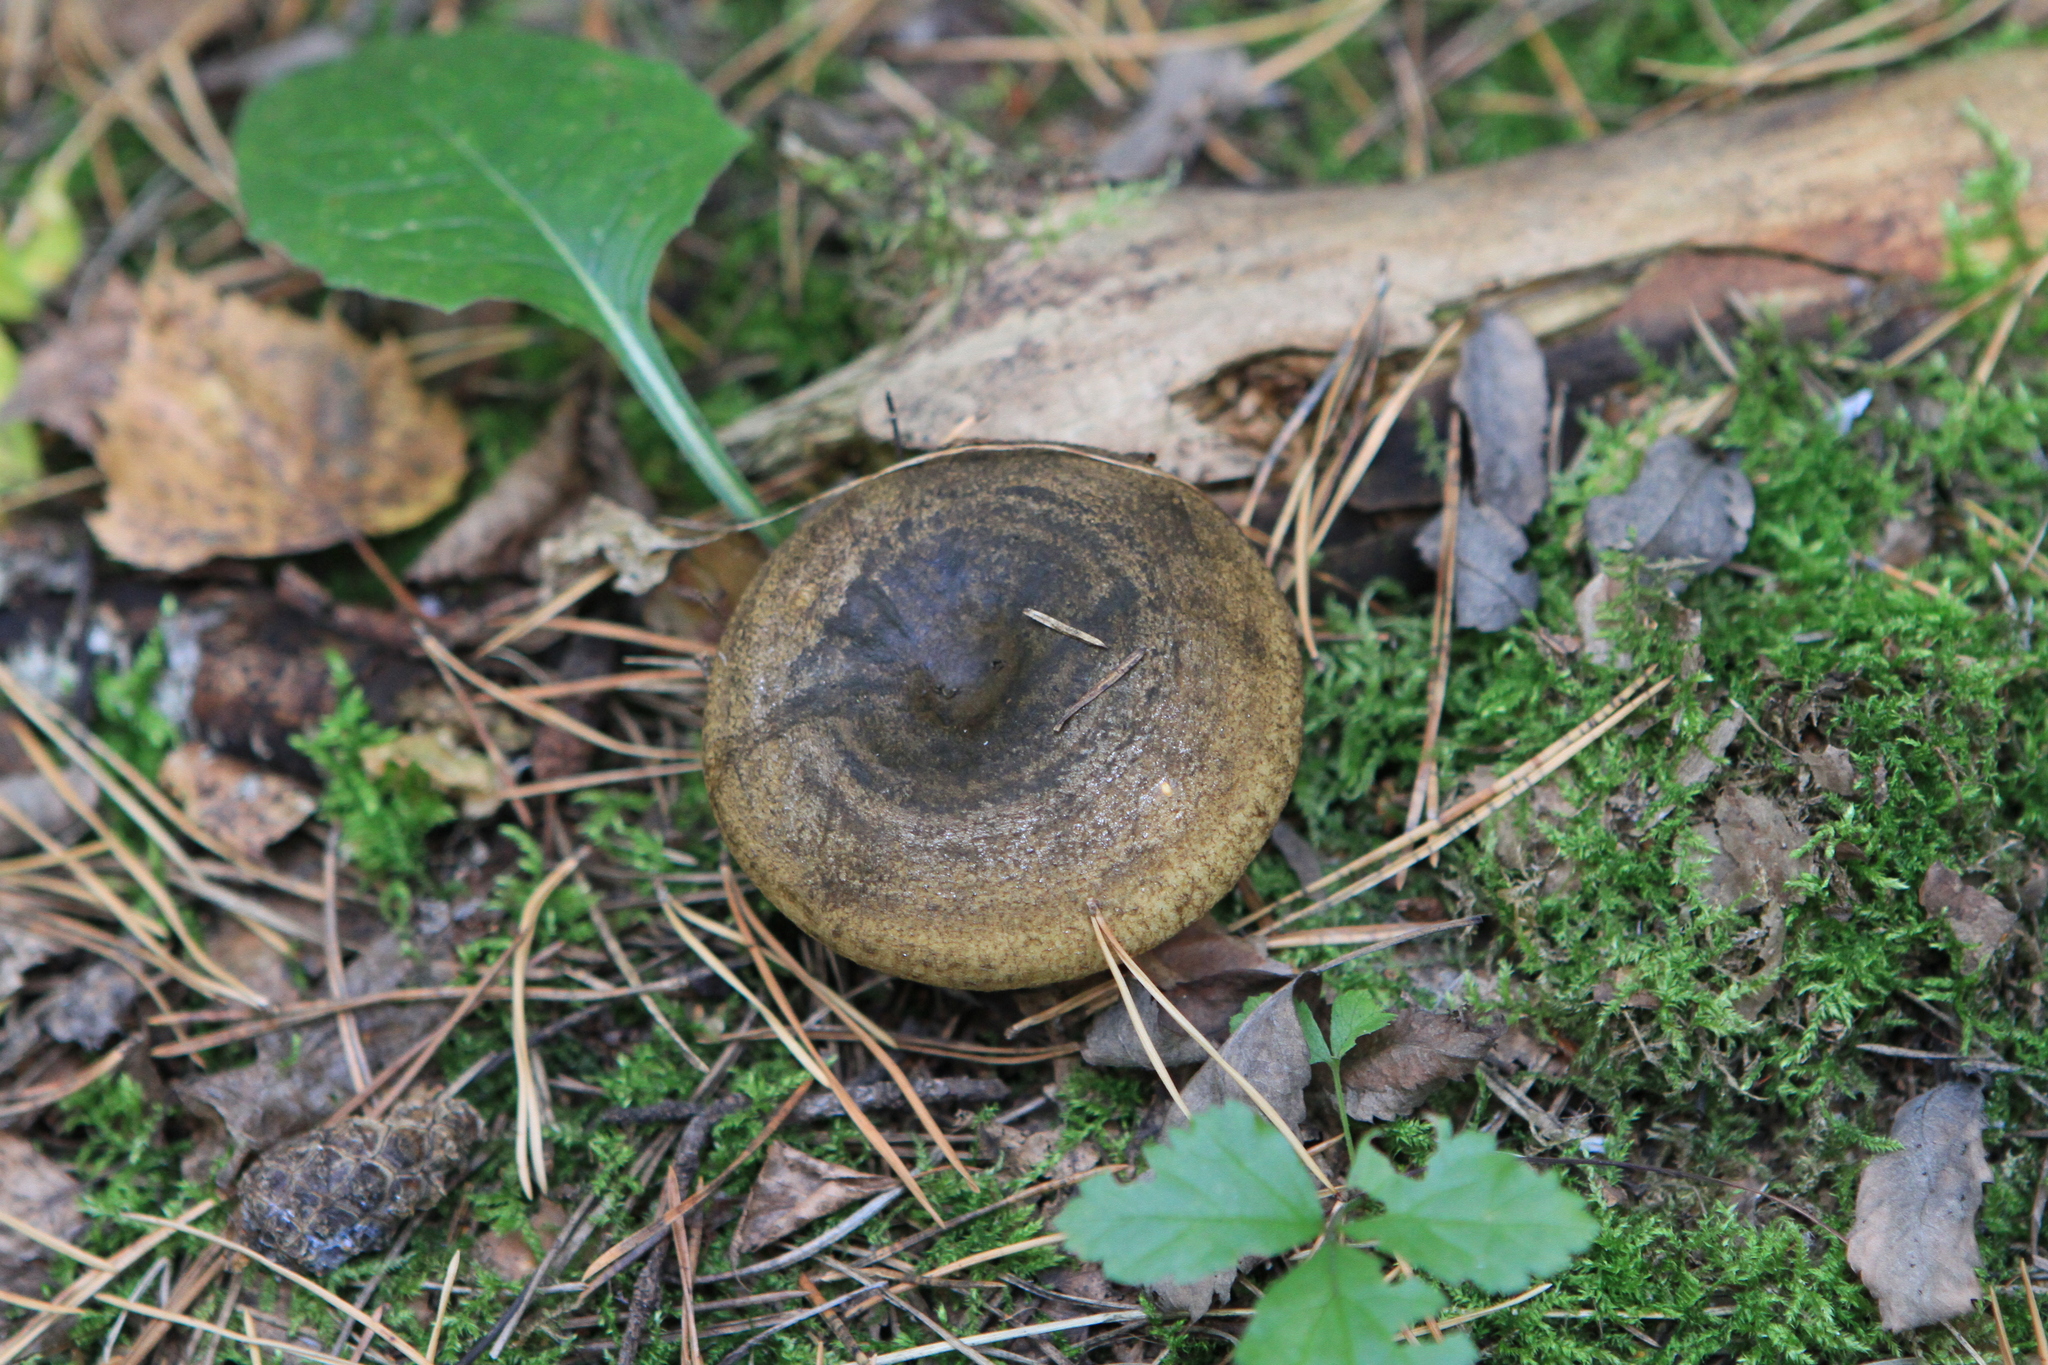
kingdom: Fungi
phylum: Basidiomycota
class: Agaricomycetes
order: Russulales
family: Russulaceae
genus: Lactarius
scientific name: Lactarius turpis
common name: Ugly milk-cap
